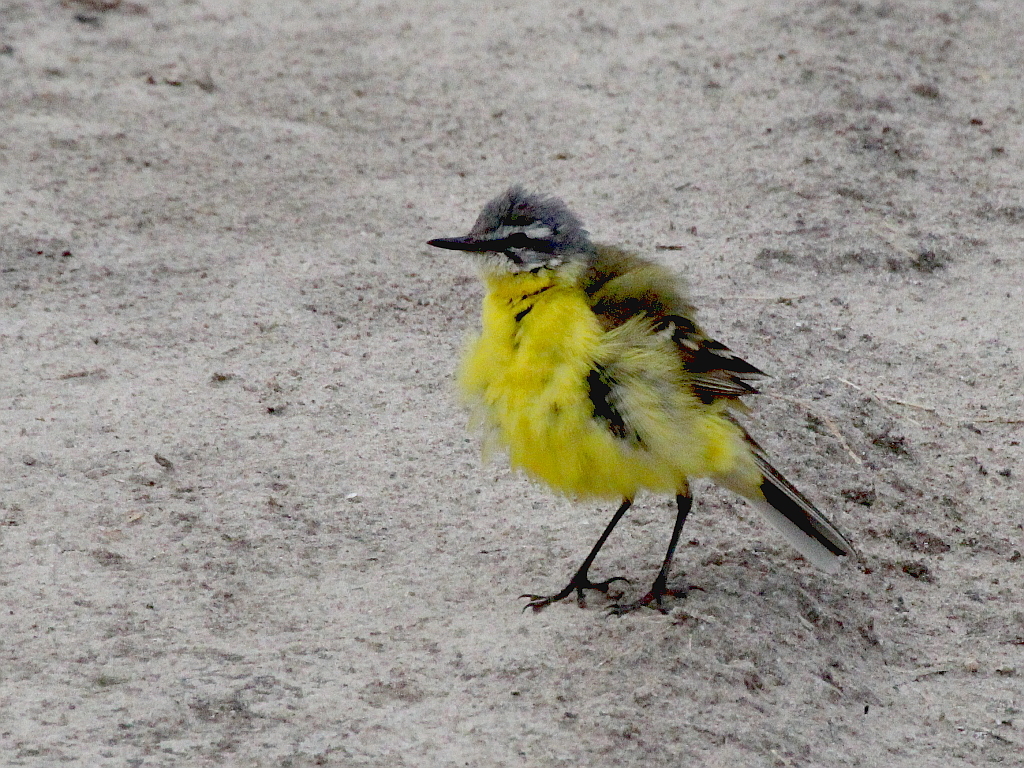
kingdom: Animalia
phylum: Chordata
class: Aves
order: Passeriformes
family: Motacillidae
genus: Motacilla
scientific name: Motacilla flava
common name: Western yellow wagtail
